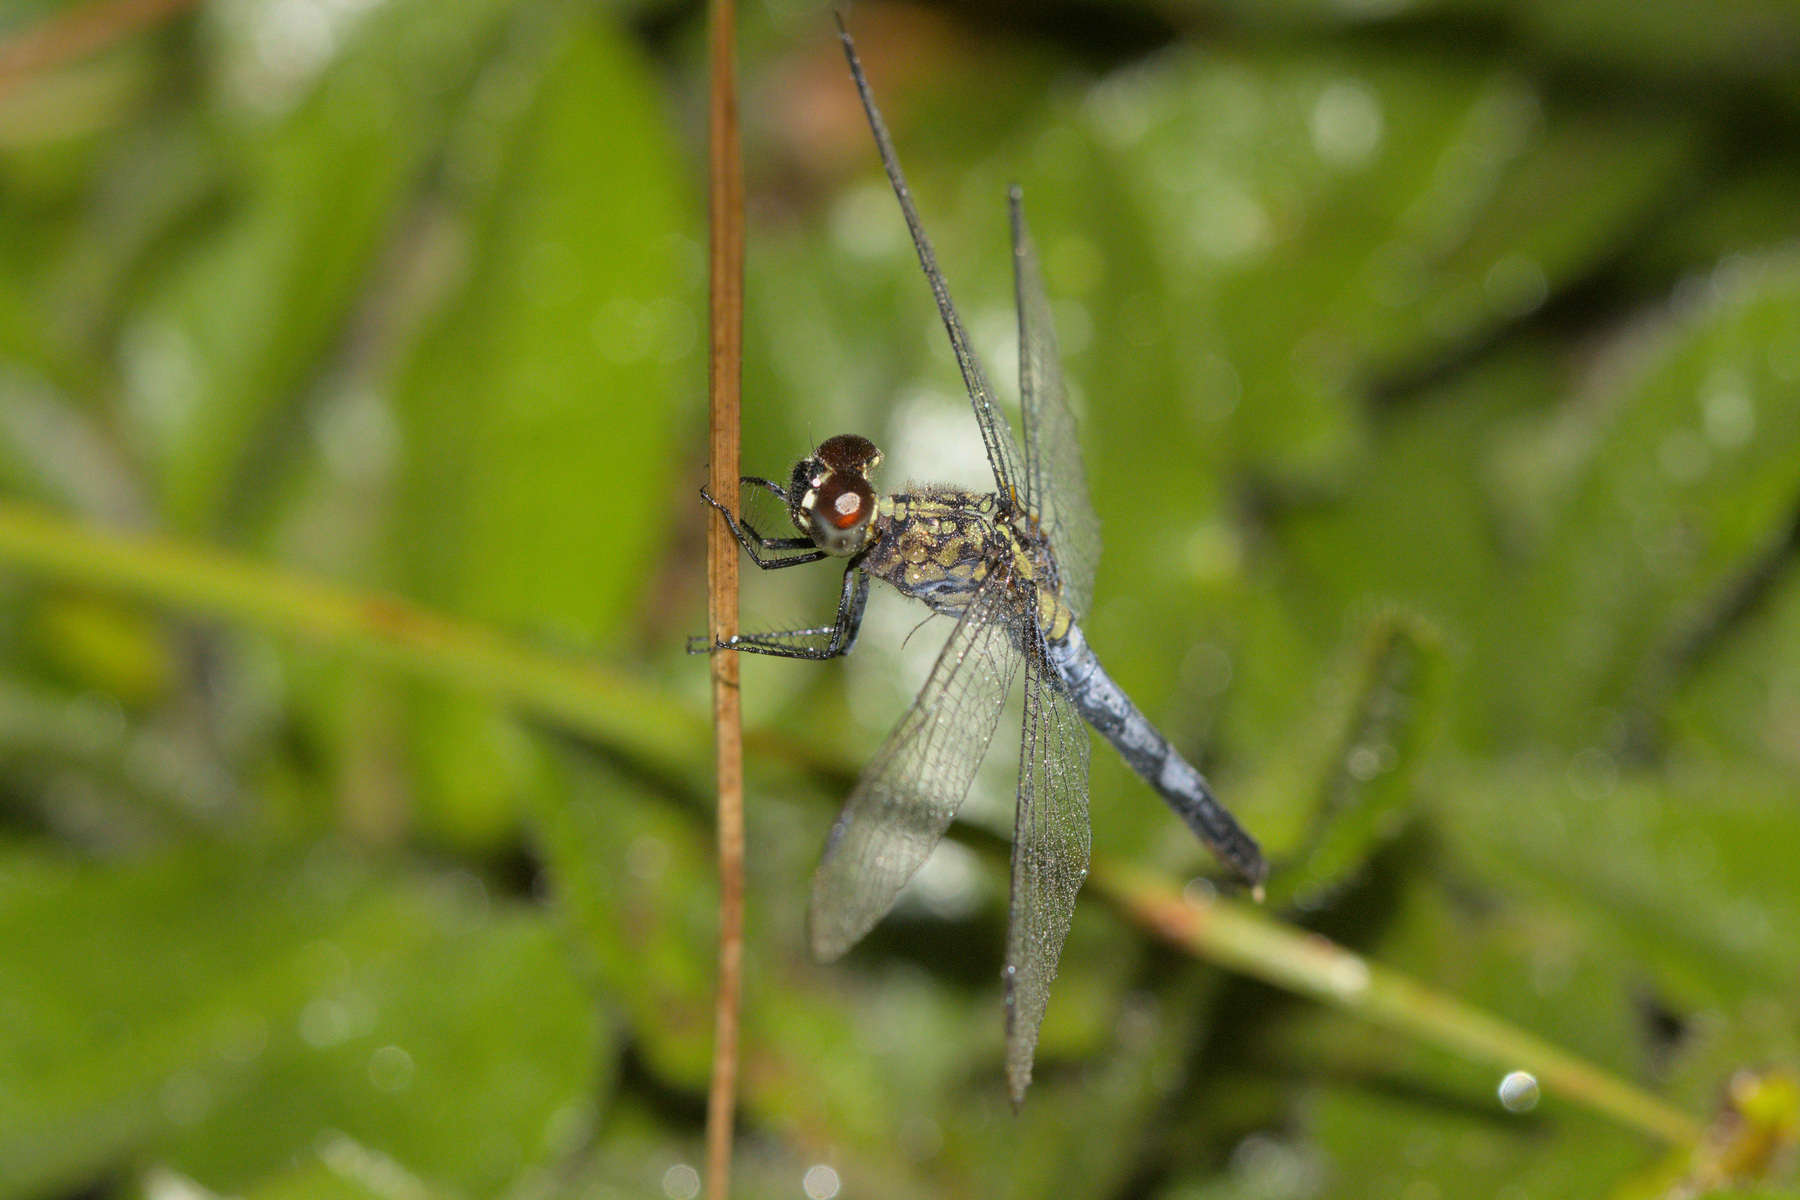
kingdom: Animalia
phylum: Arthropoda
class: Insecta
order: Odonata
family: Libellulidae
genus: Erythrodiplax
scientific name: Erythrodiplax basalis
